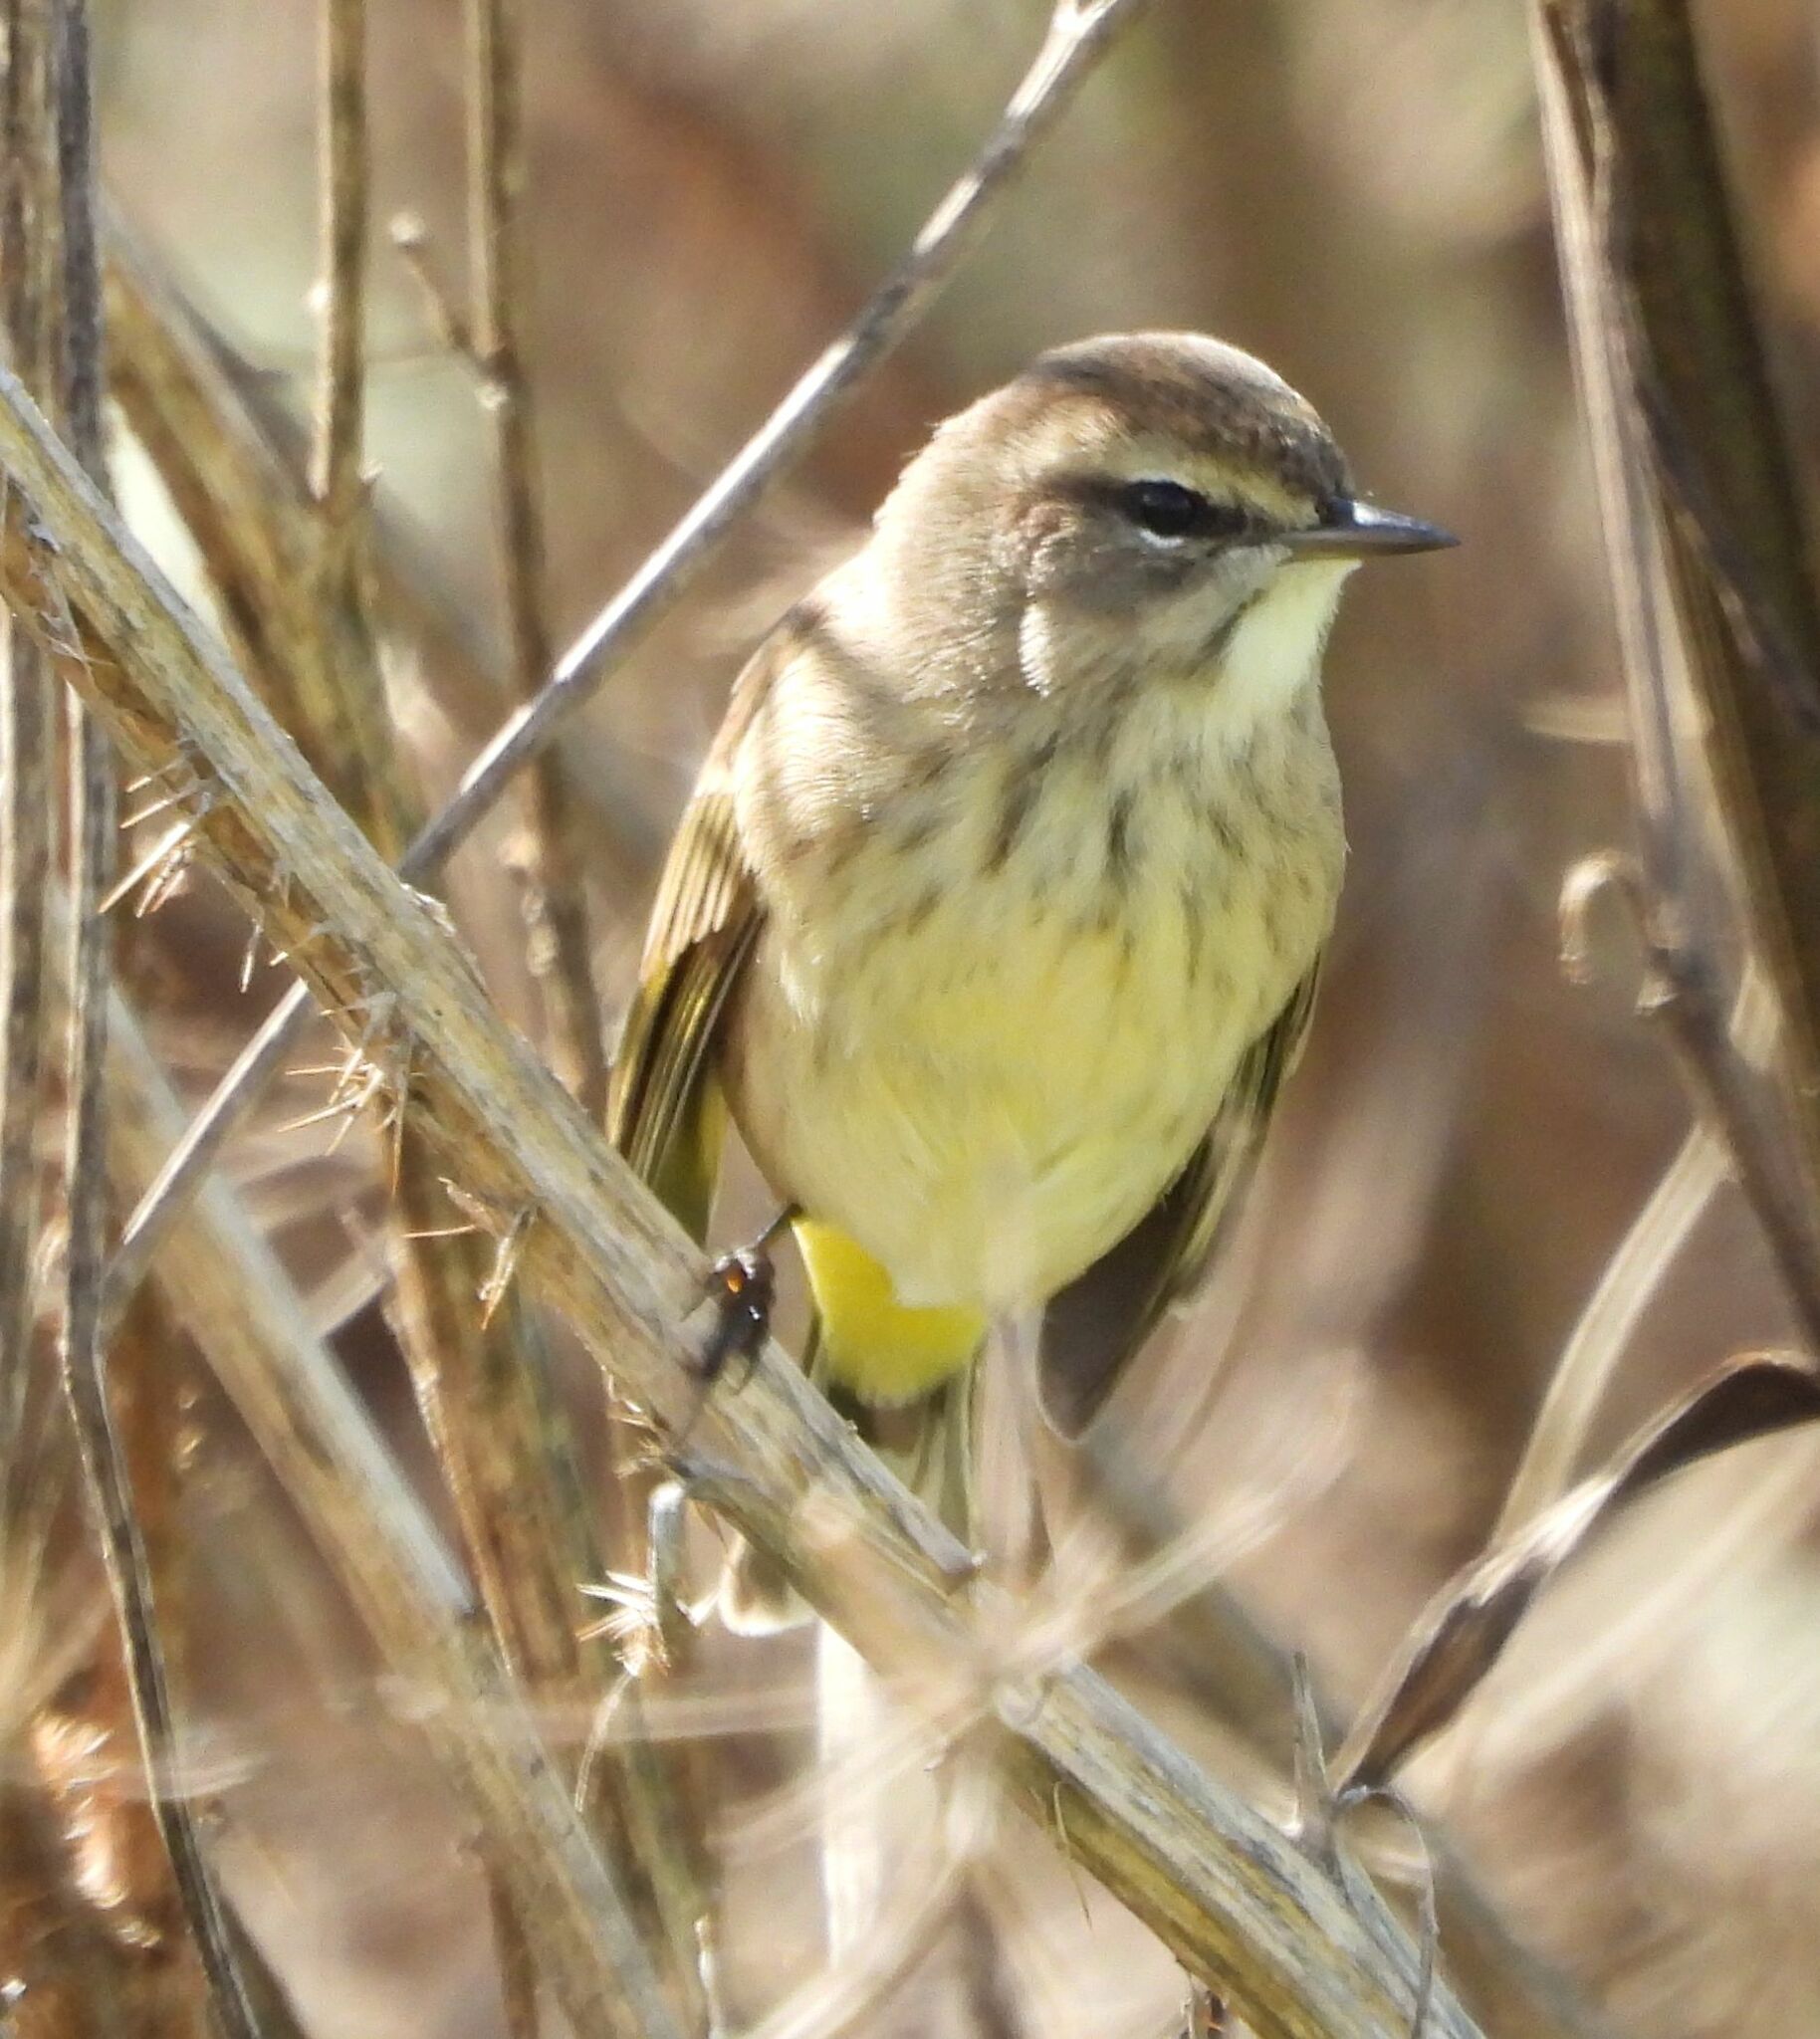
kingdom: Animalia
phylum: Chordata
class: Aves
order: Passeriformes
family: Parulidae
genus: Setophaga
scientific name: Setophaga palmarum
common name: Palm warbler
